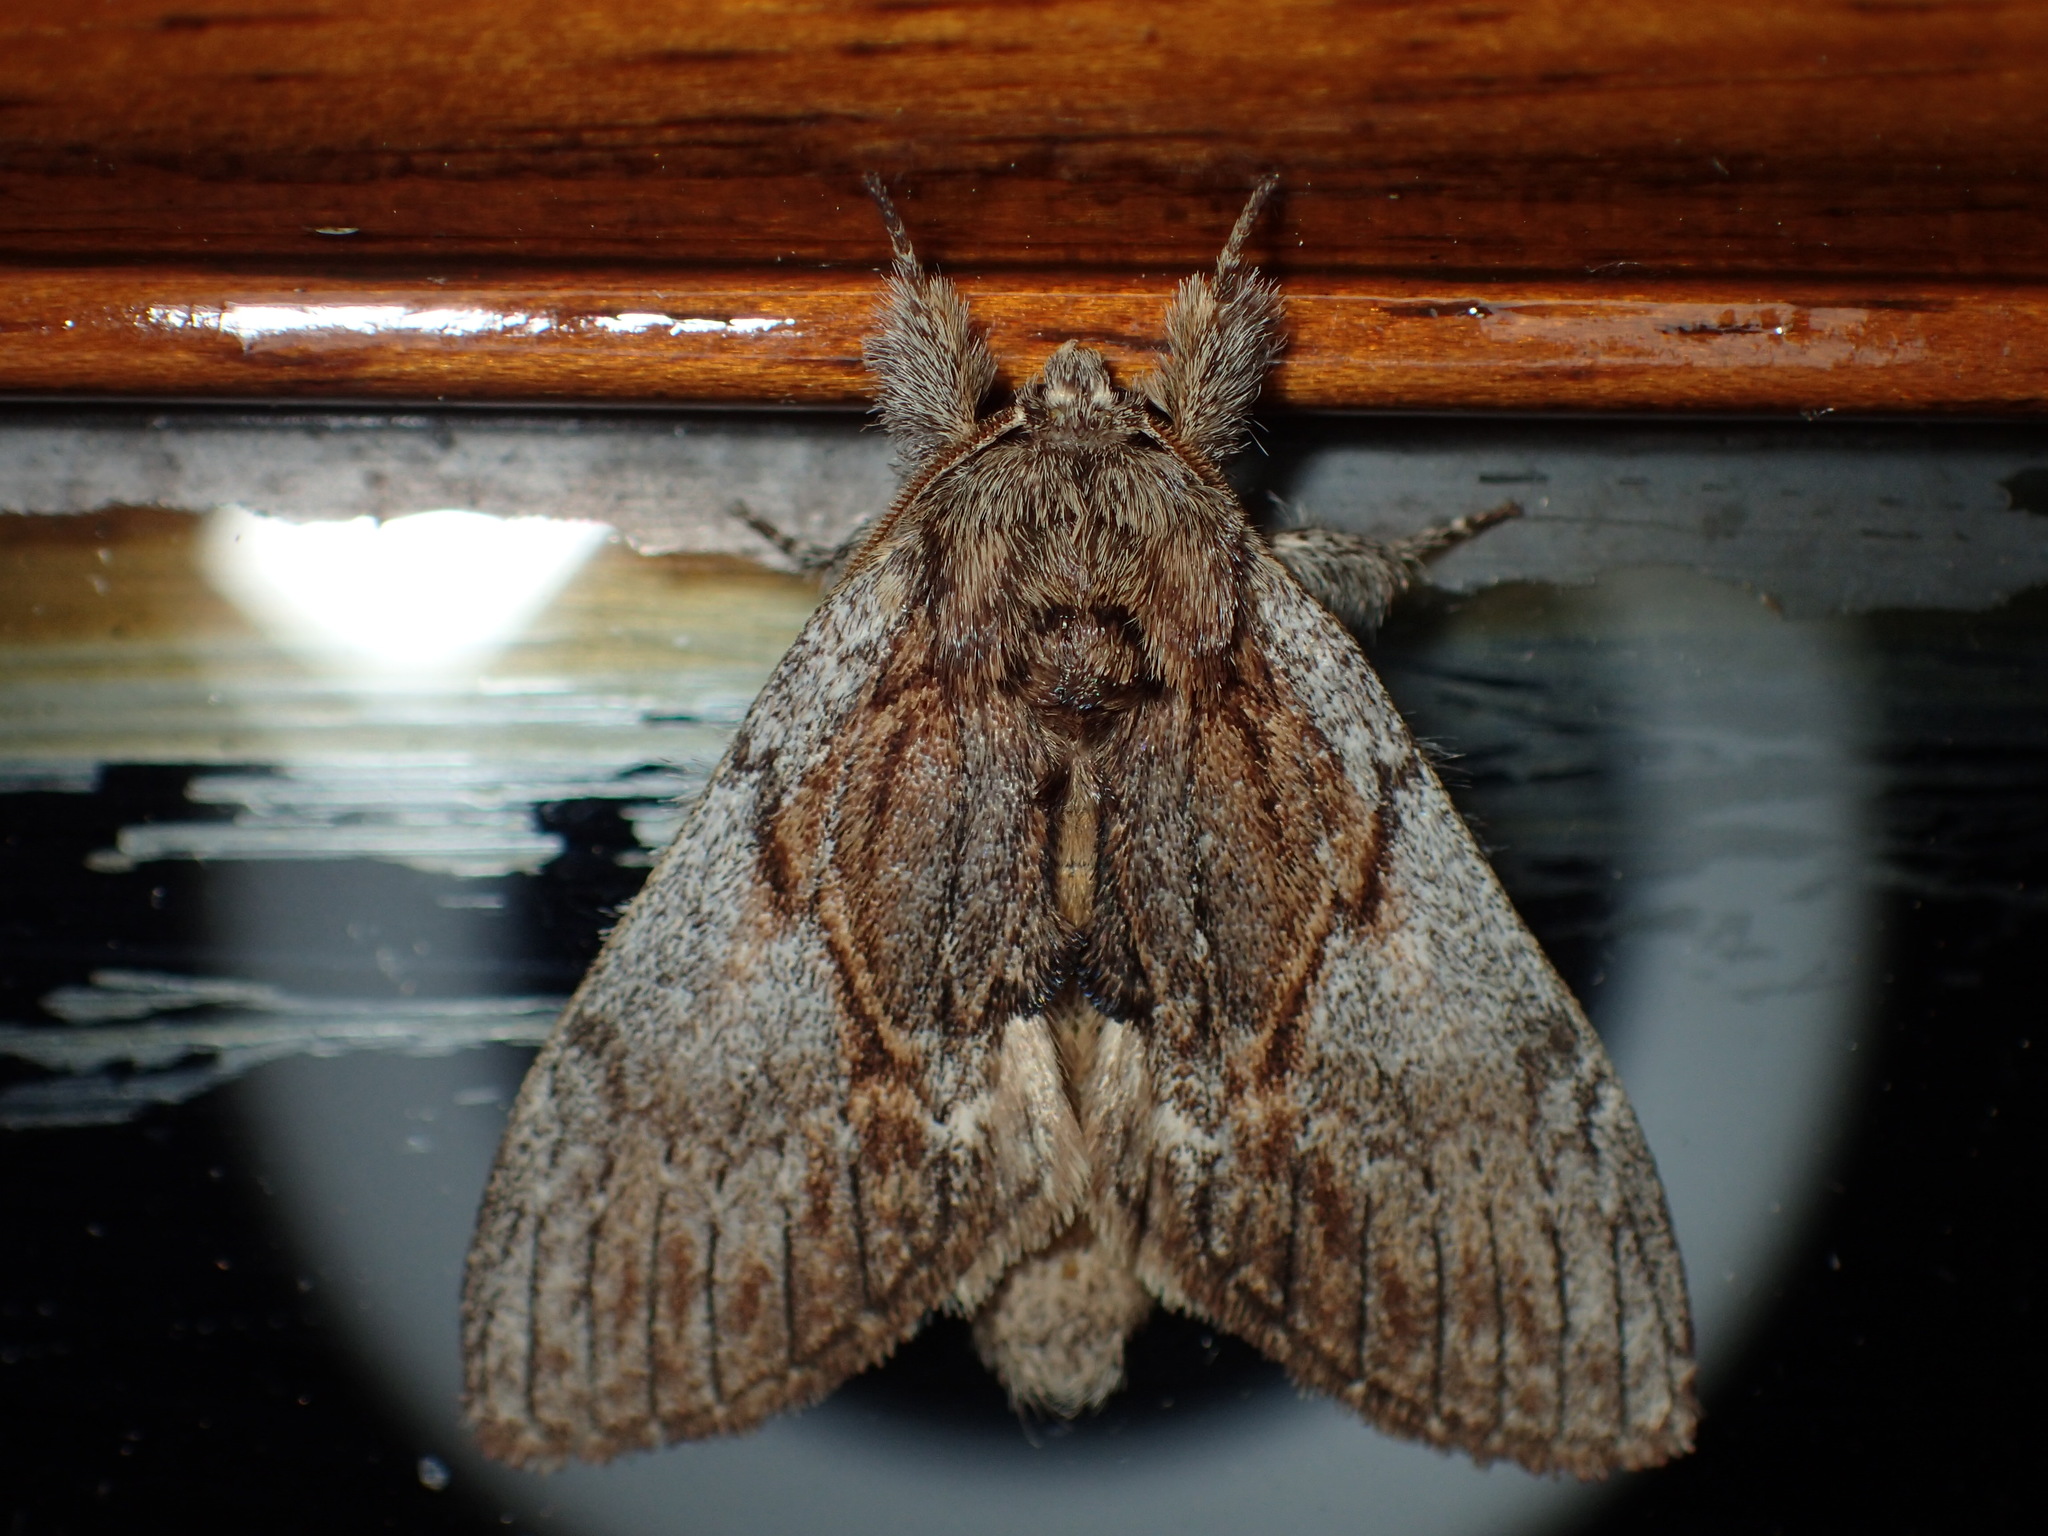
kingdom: Animalia
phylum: Arthropoda
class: Insecta
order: Lepidoptera
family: Notodontidae
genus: Peridea
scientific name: Peridea basitriens
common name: Oval-based prominent
